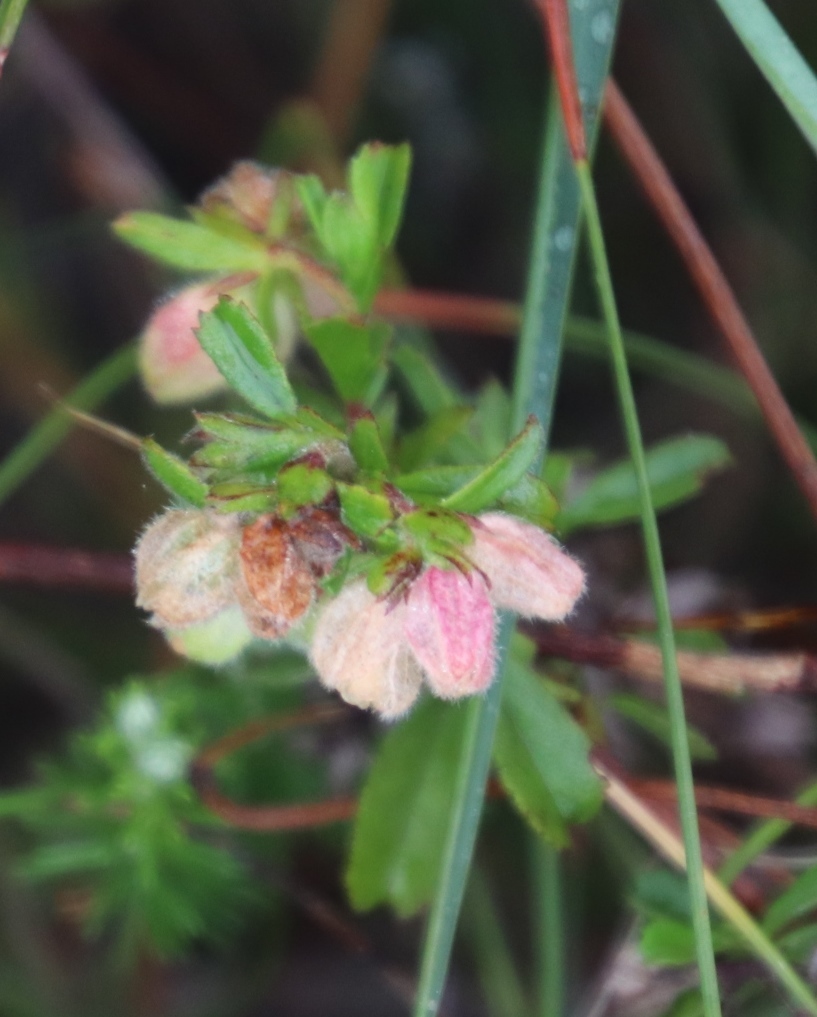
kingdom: Plantae
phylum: Tracheophyta
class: Magnoliopsida
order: Malvales
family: Malvaceae
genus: Hermannia
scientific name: Hermannia rudis
